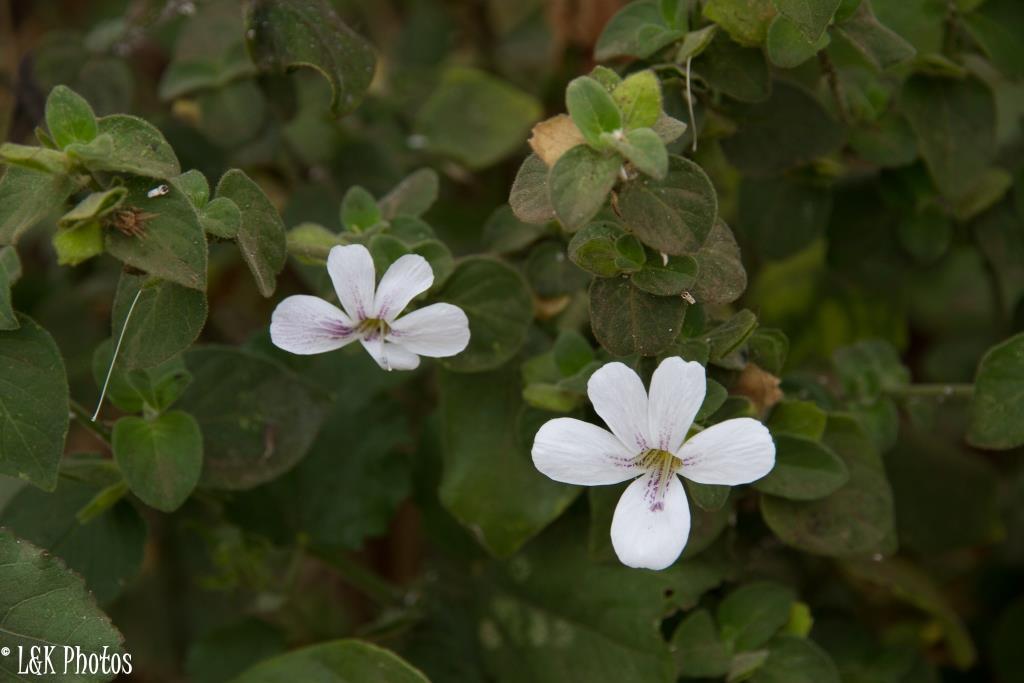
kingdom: Plantae
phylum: Tracheophyta
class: Magnoliopsida
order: Lamiales
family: Acanthaceae
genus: Barleria
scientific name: Barleria submollis
